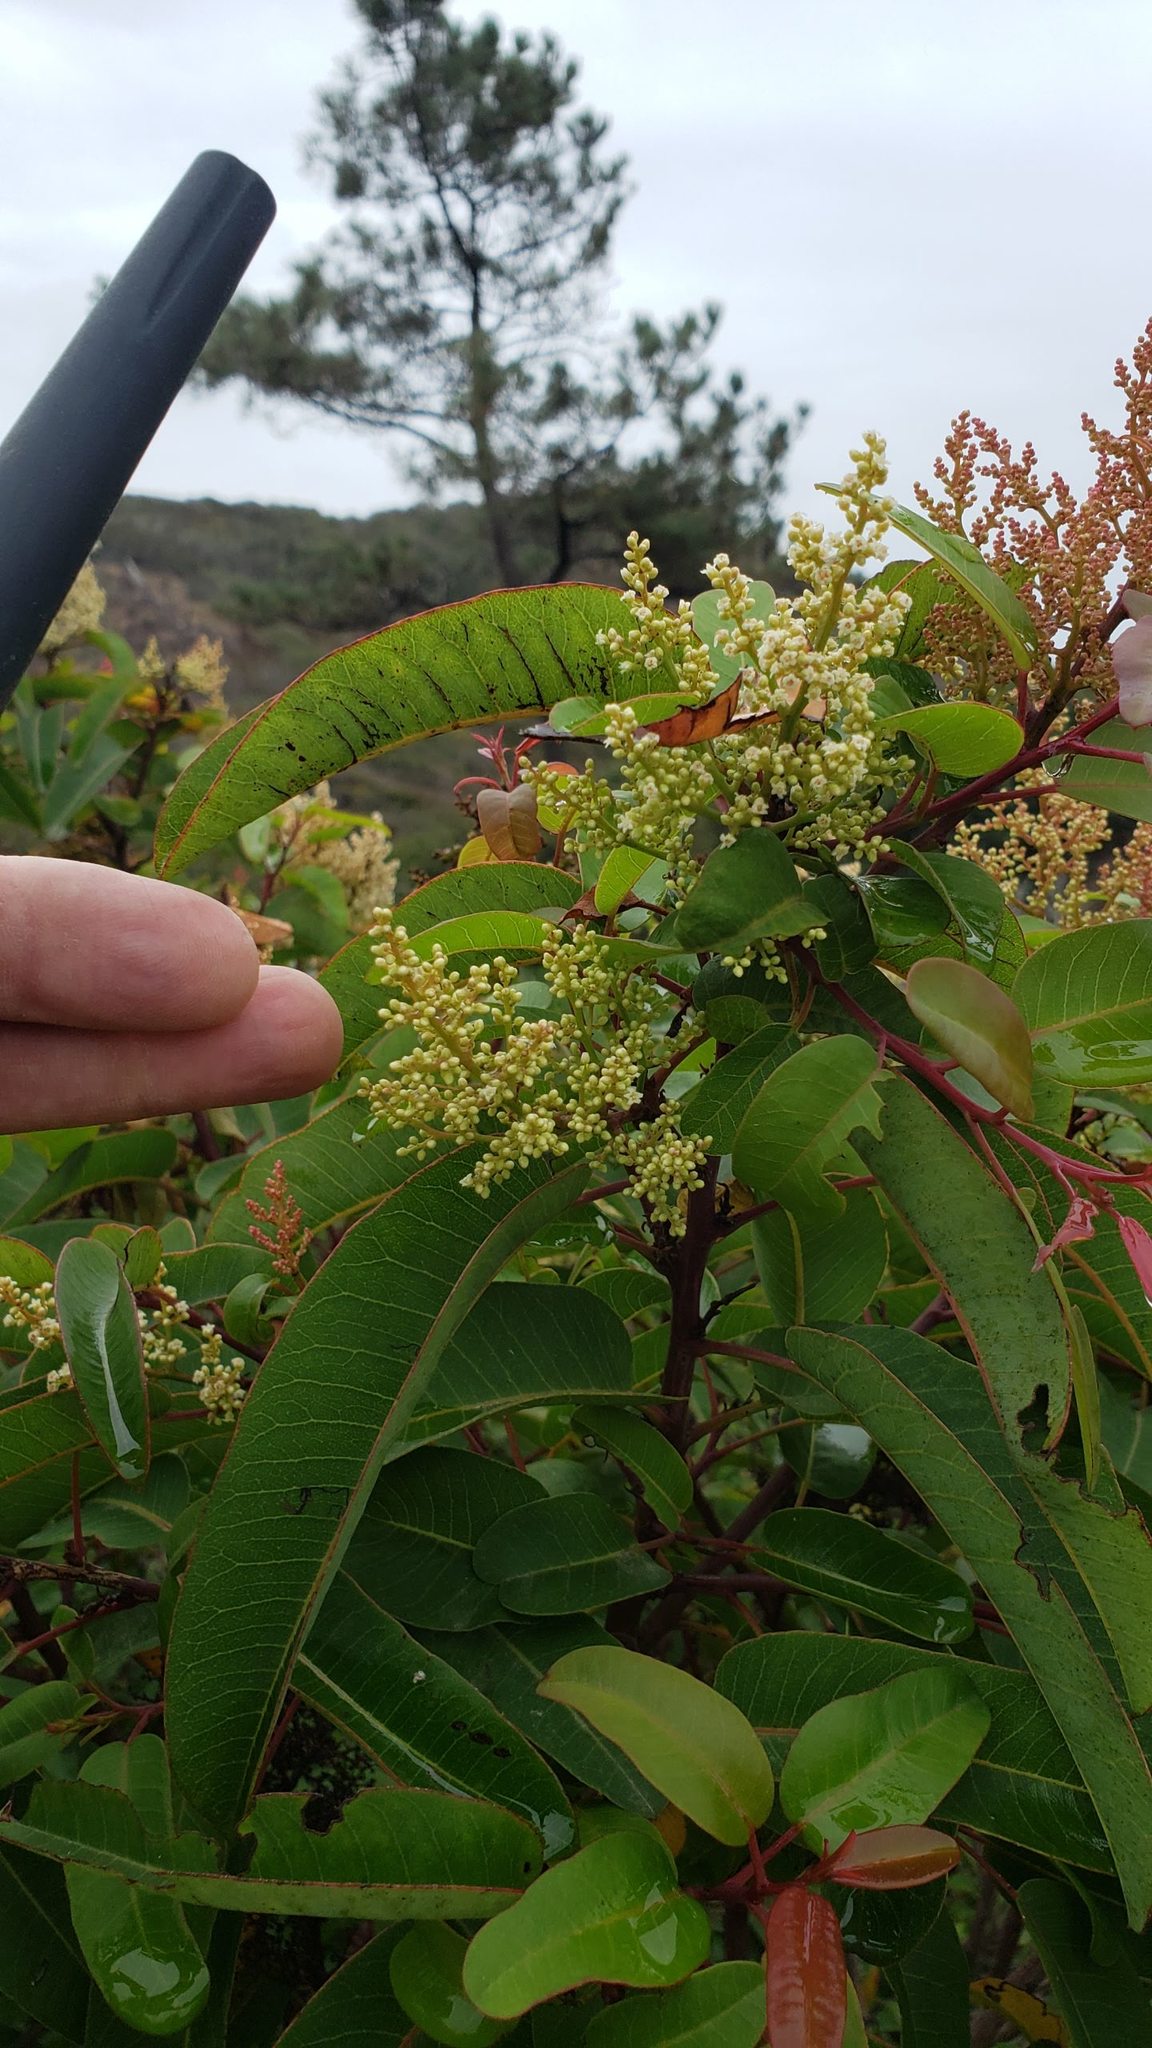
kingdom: Plantae
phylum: Tracheophyta
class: Magnoliopsida
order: Sapindales
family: Anacardiaceae
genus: Malosma
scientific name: Malosma laurina
